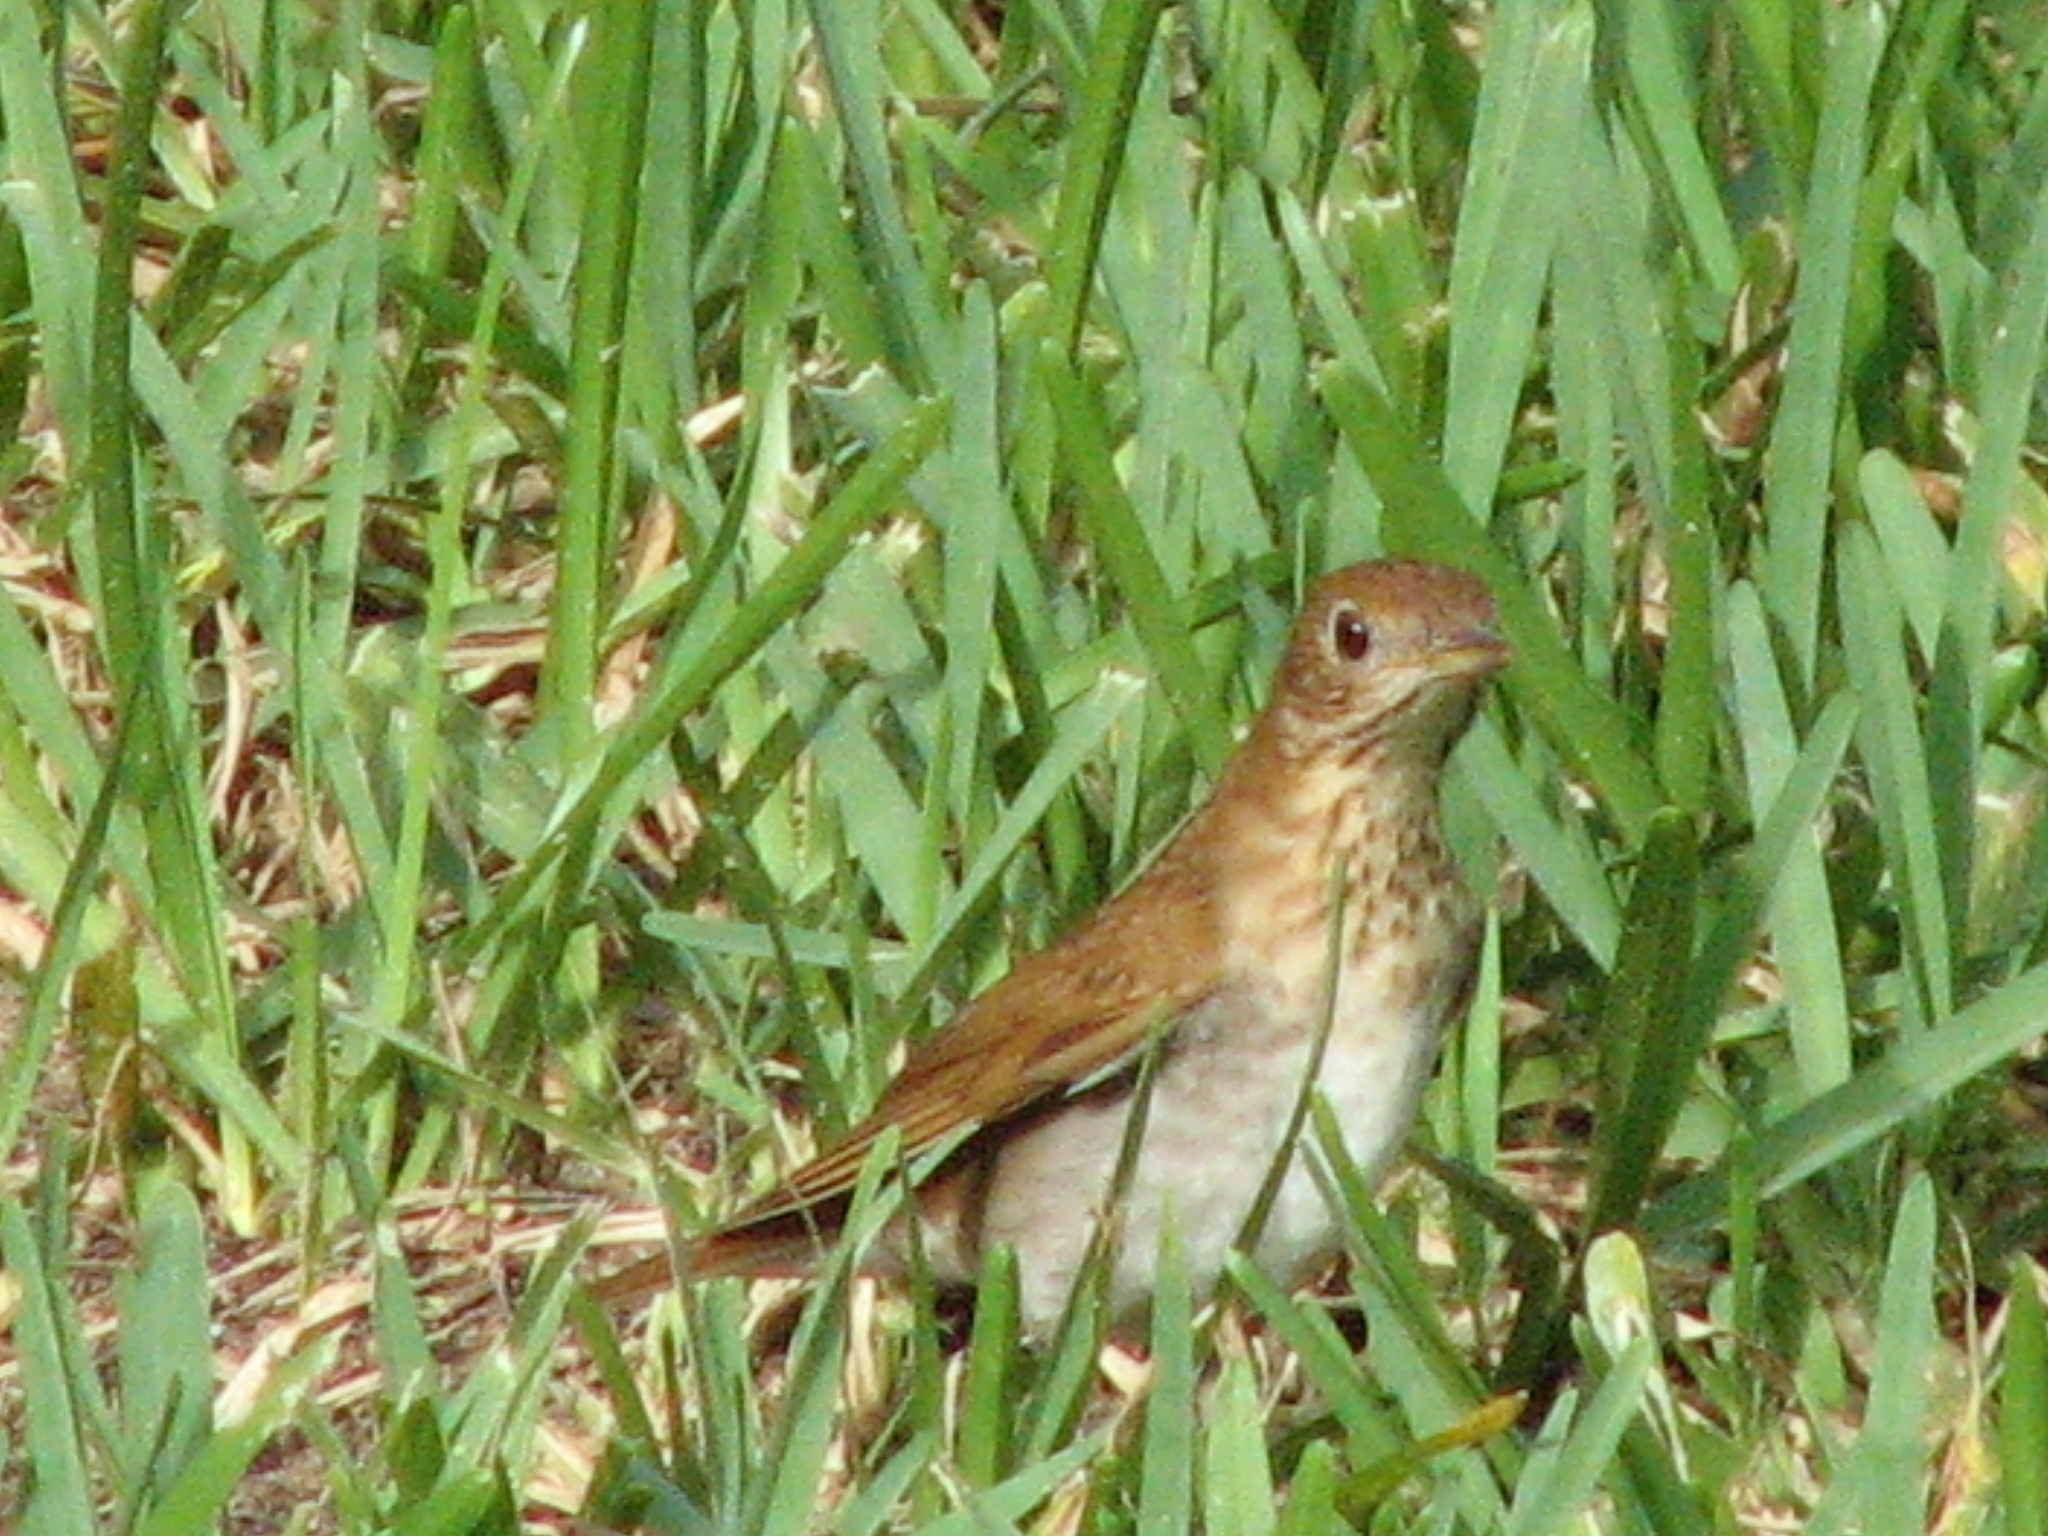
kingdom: Animalia
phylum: Chordata
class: Aves
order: Passeriformes
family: Turdidae
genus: Catharus
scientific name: Catharus fuscescens
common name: Veery
